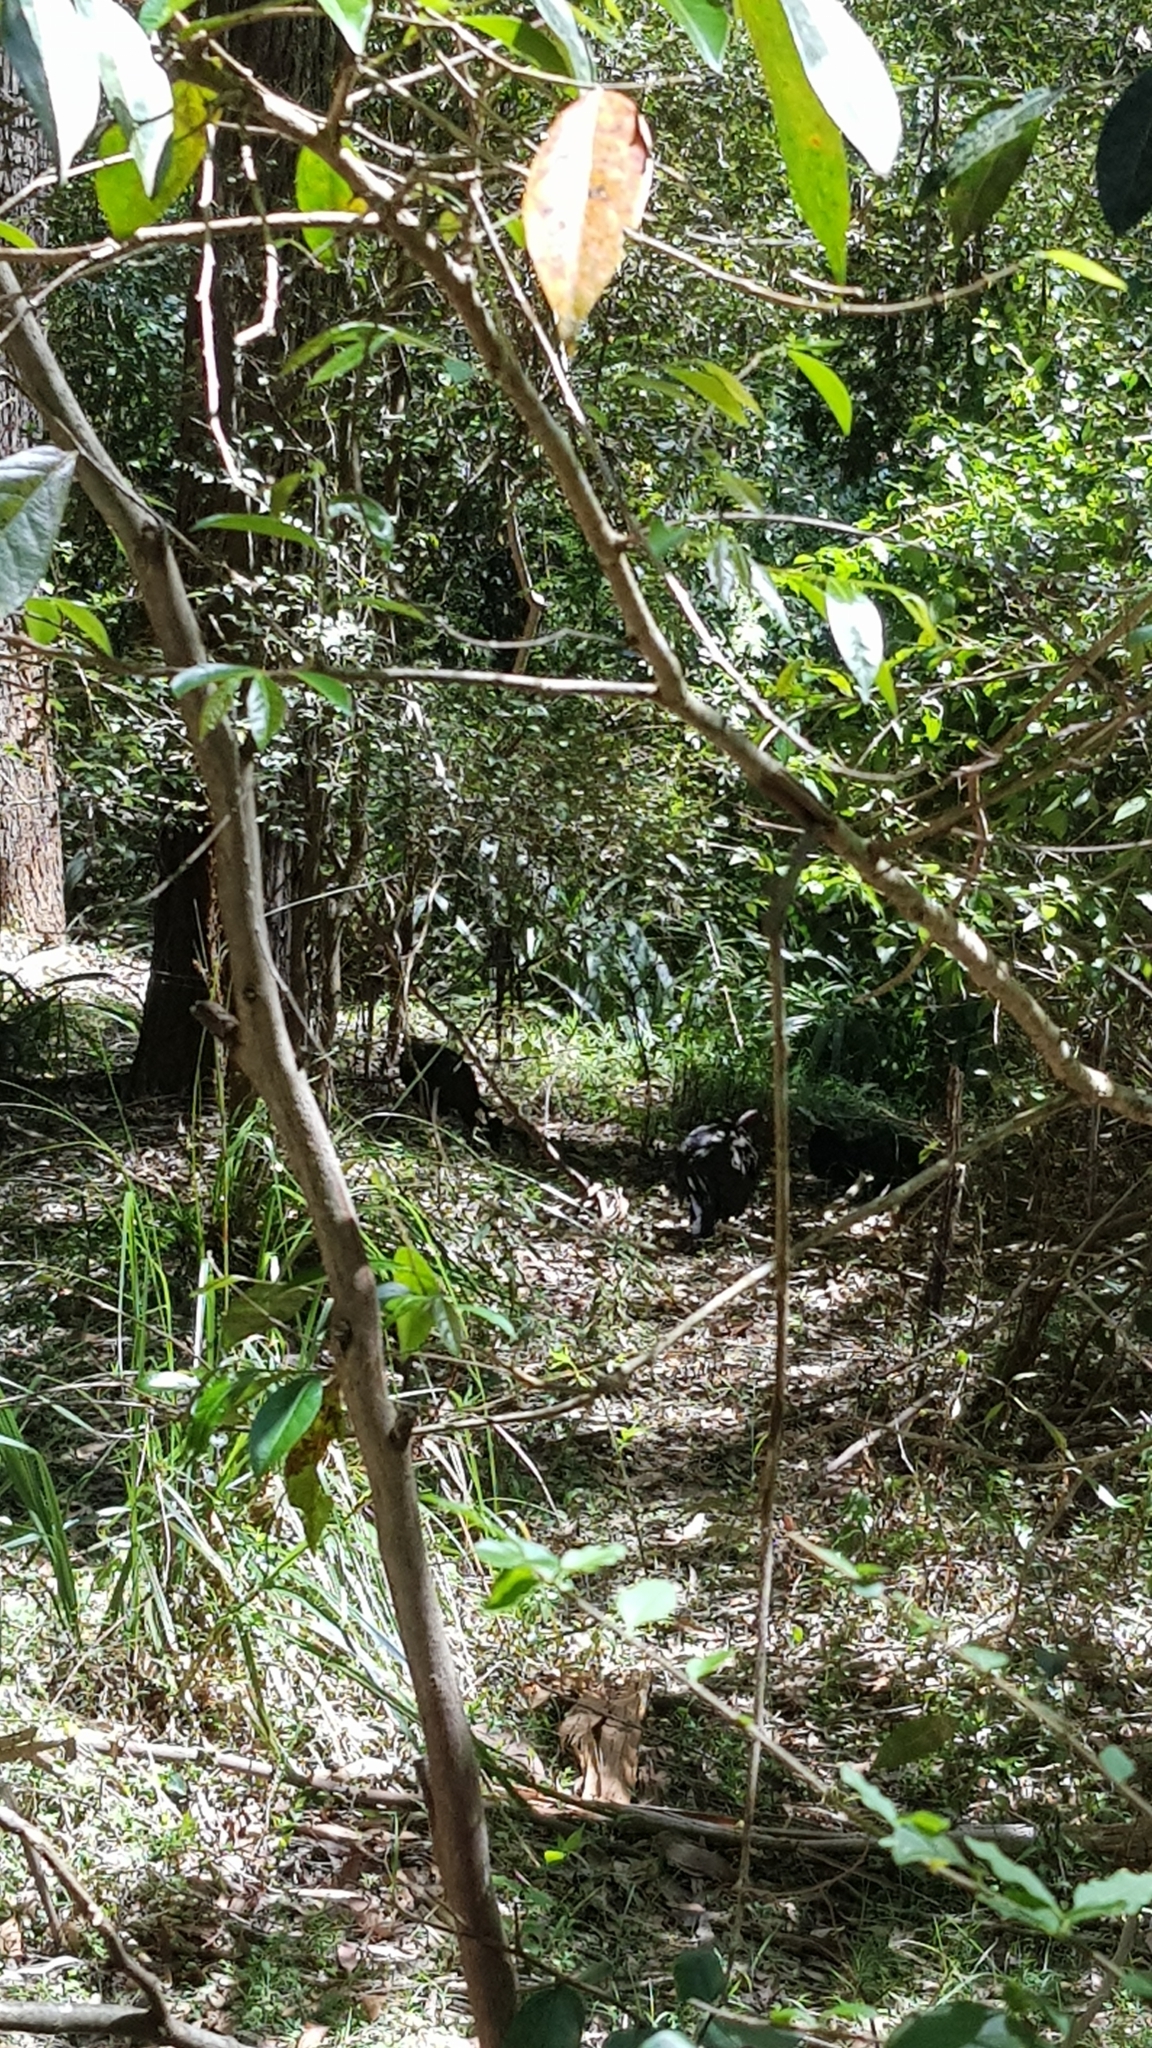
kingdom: Animalia
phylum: Chordata
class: Aves
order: Galliformes
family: Megapodiidae
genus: Alectura
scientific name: Alectura lathami
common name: Australian brushturkey
